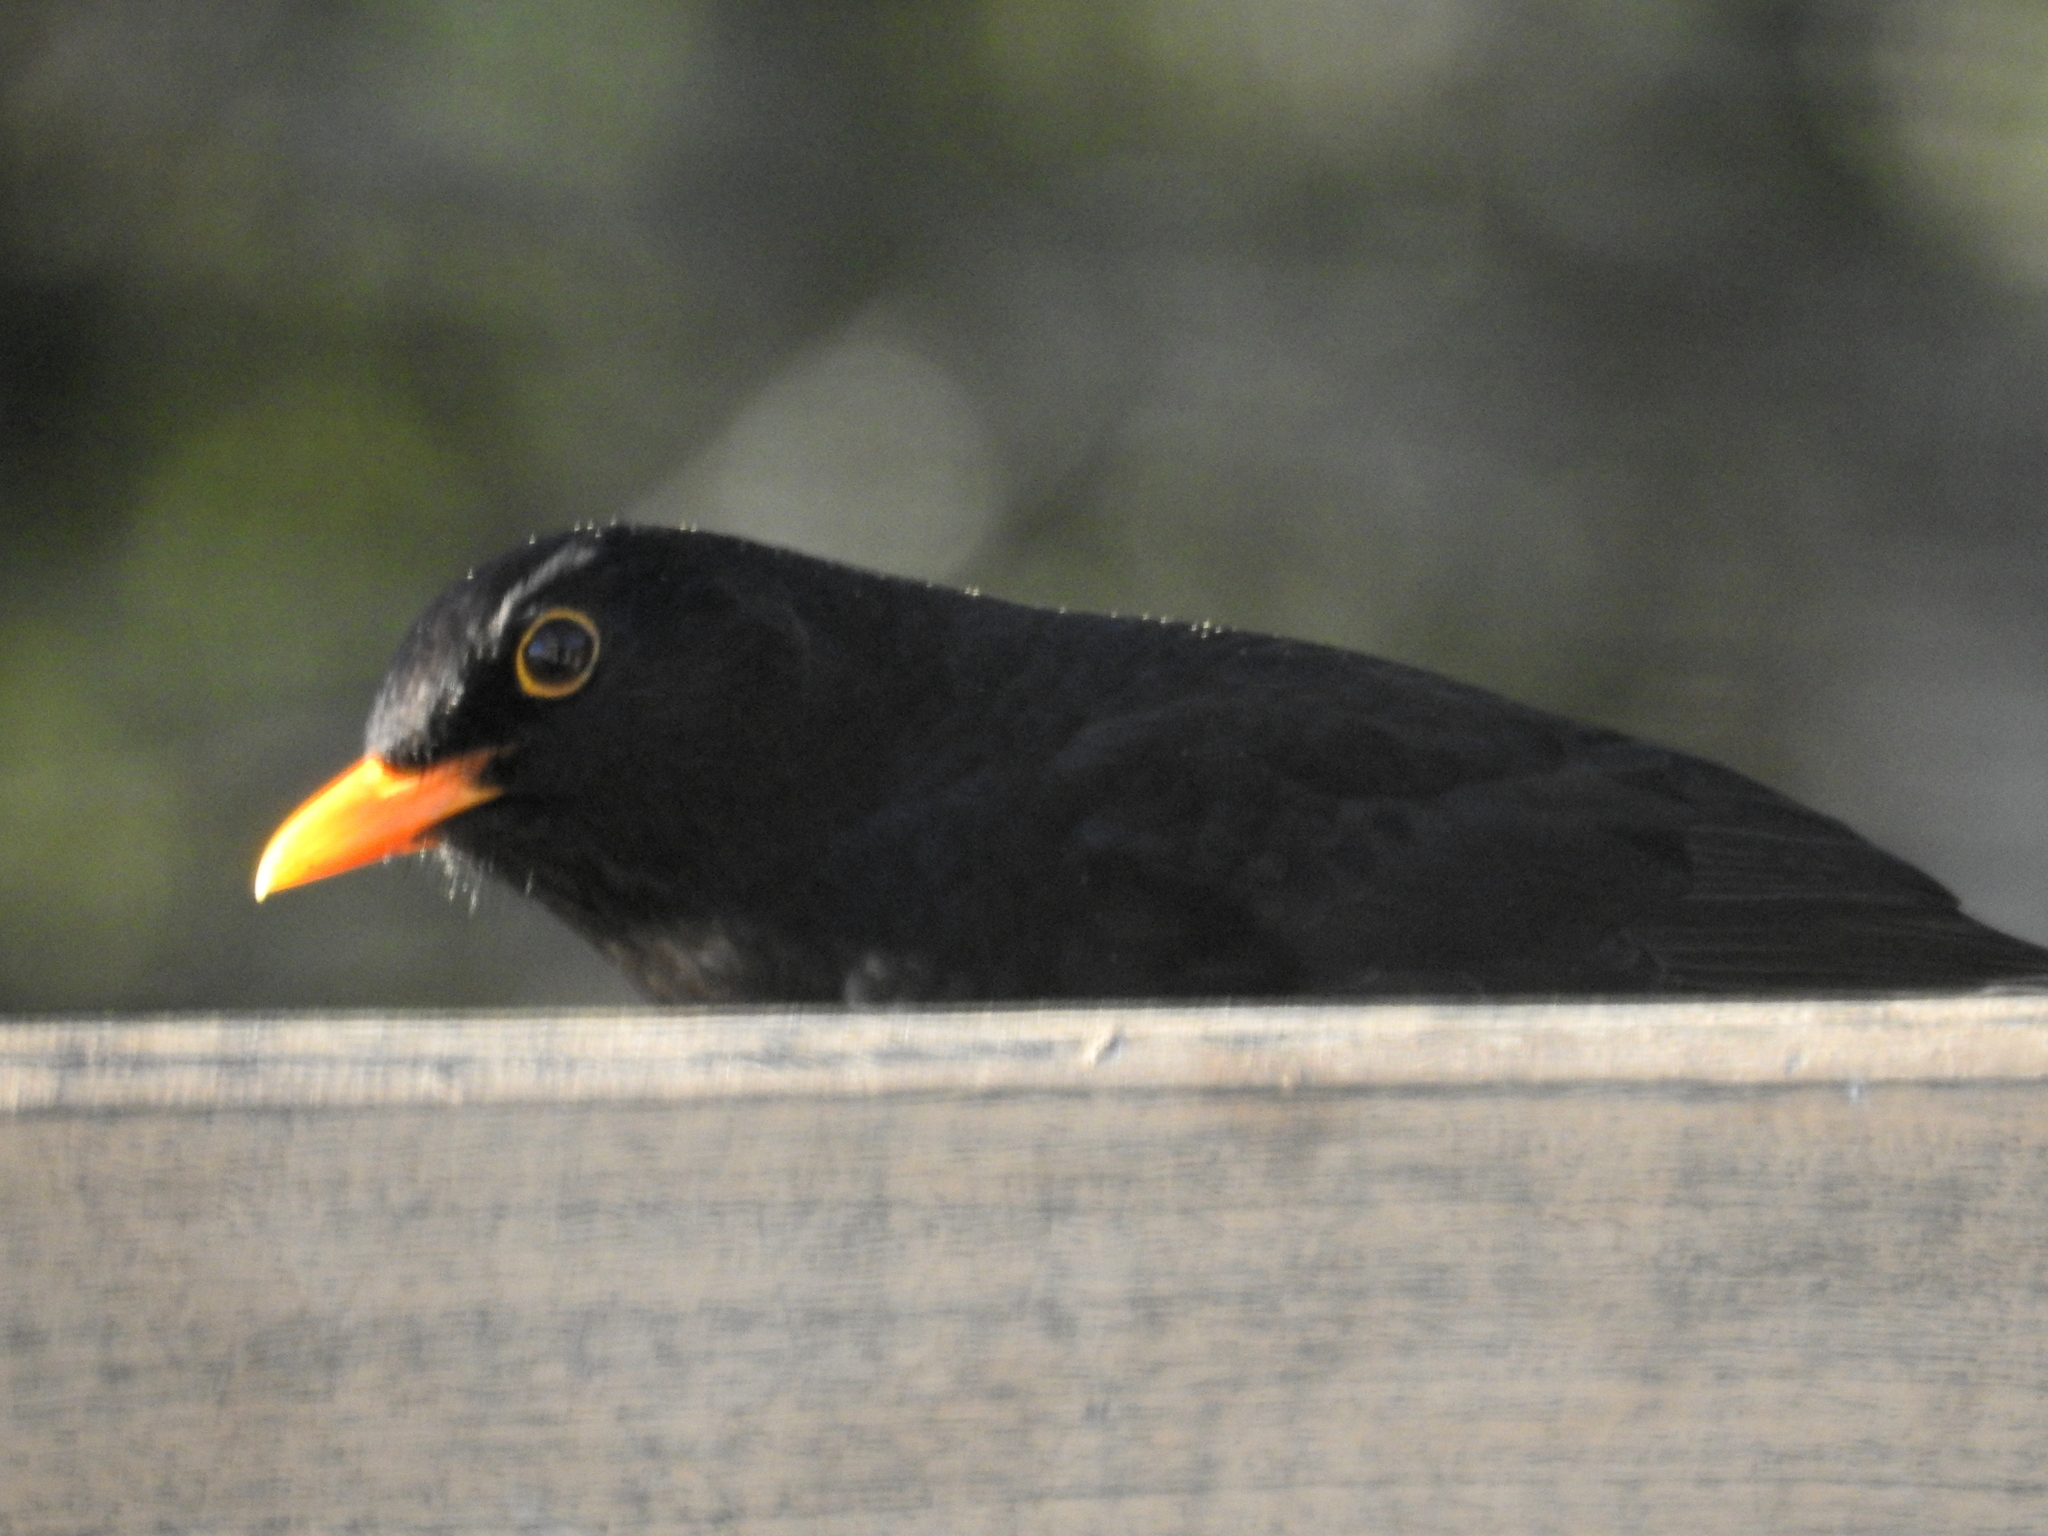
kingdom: Animalia
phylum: Chordata
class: Aves
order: Passeriformes
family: Turdidae
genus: Turdus
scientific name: Turdus merula
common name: Common blackbird
